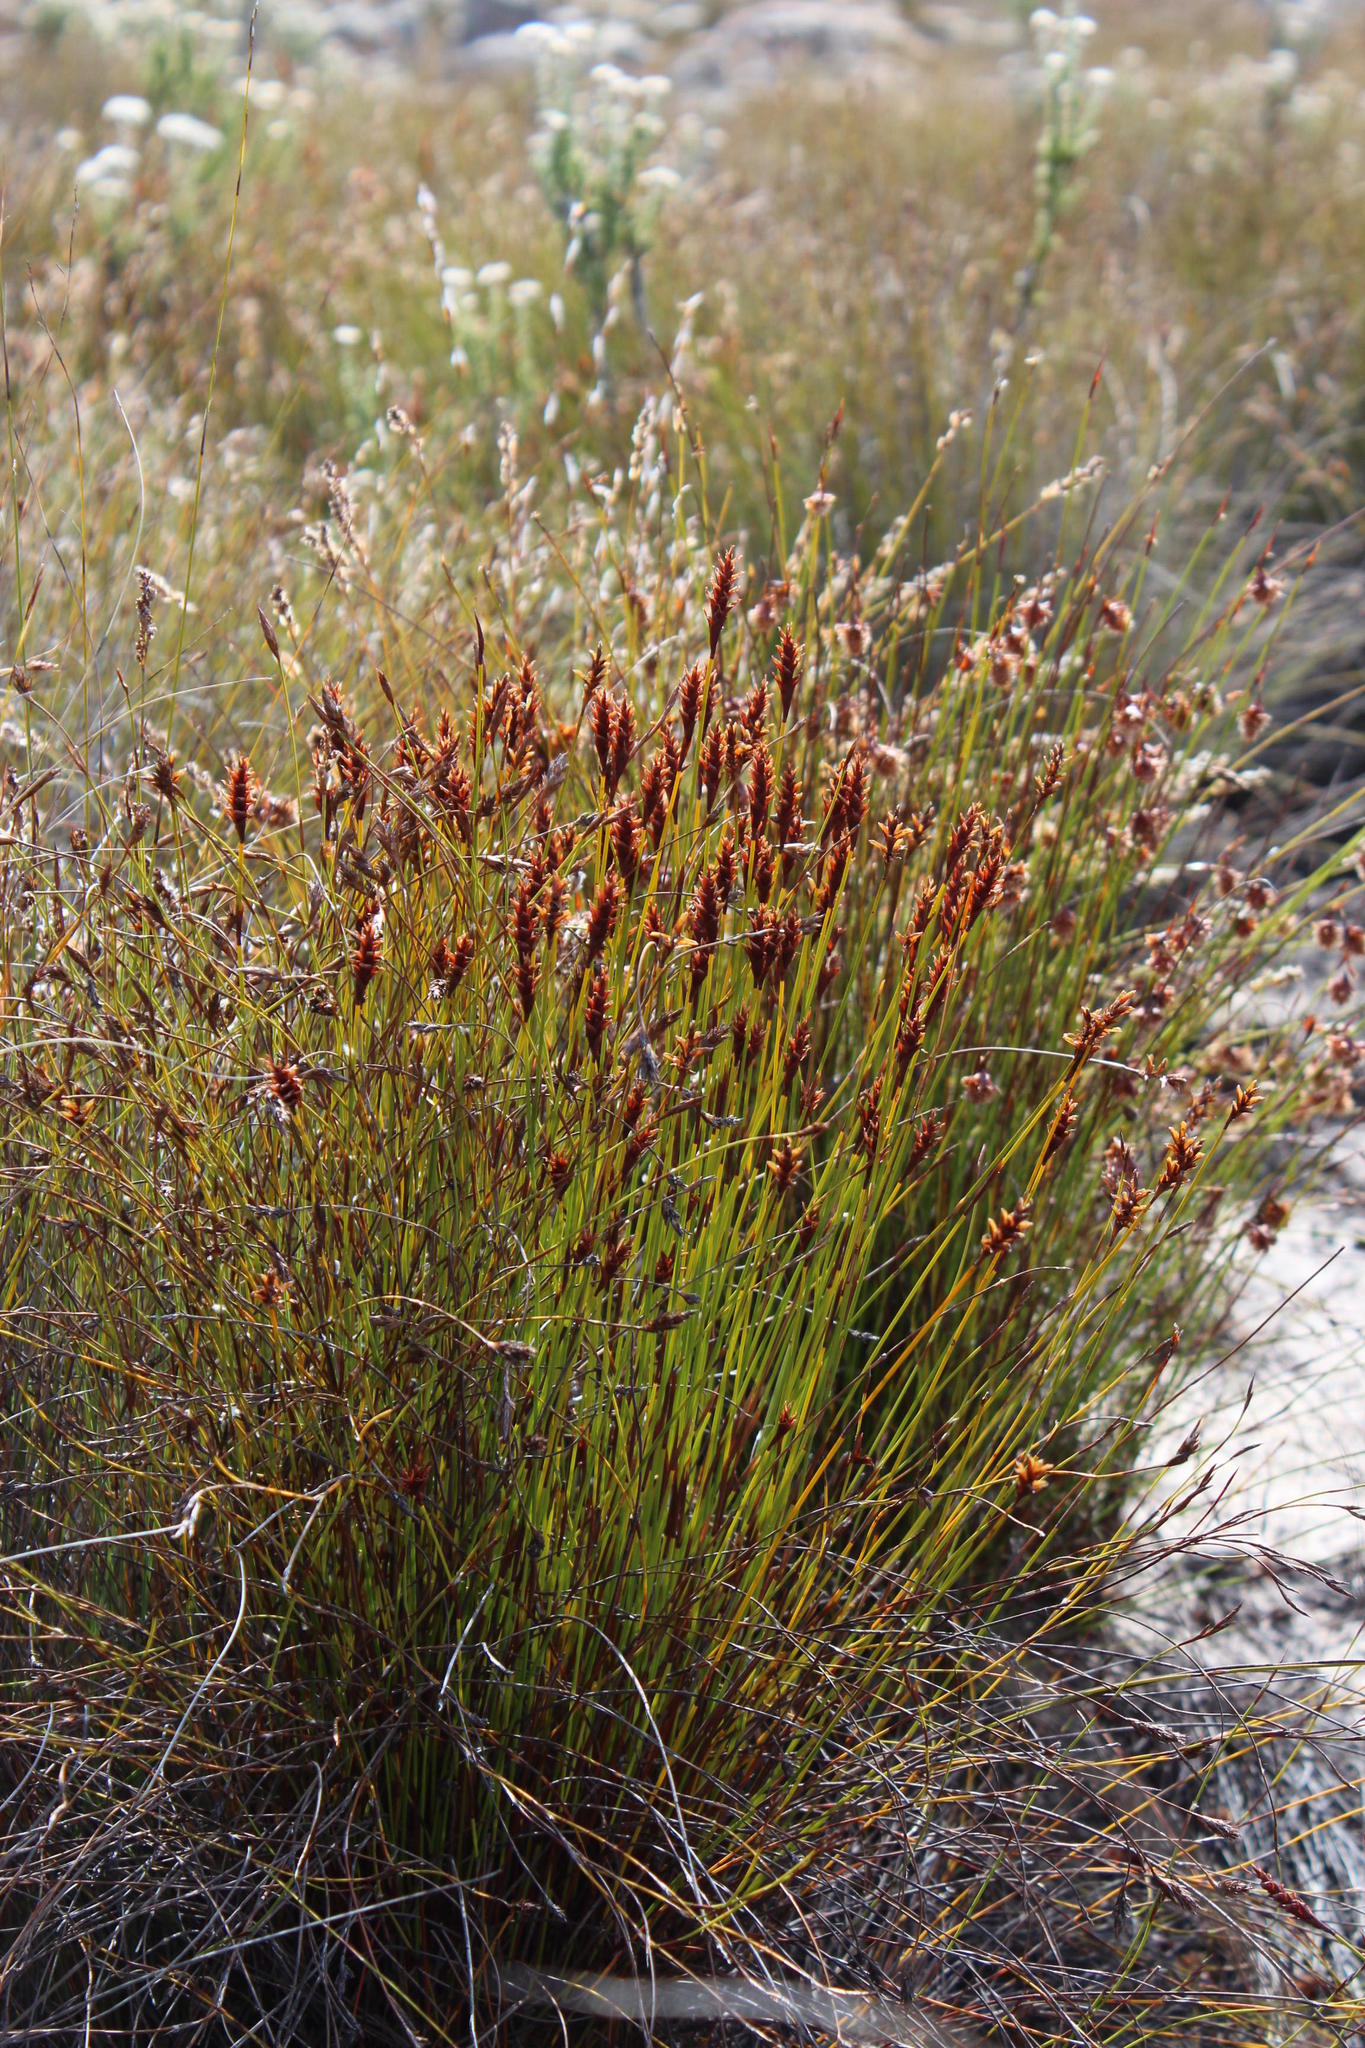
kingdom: Plantae
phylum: Tracheophyta
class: Liliopsida
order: Poales
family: Restionaceae
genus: Staberoha
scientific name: Staberoha cernua
